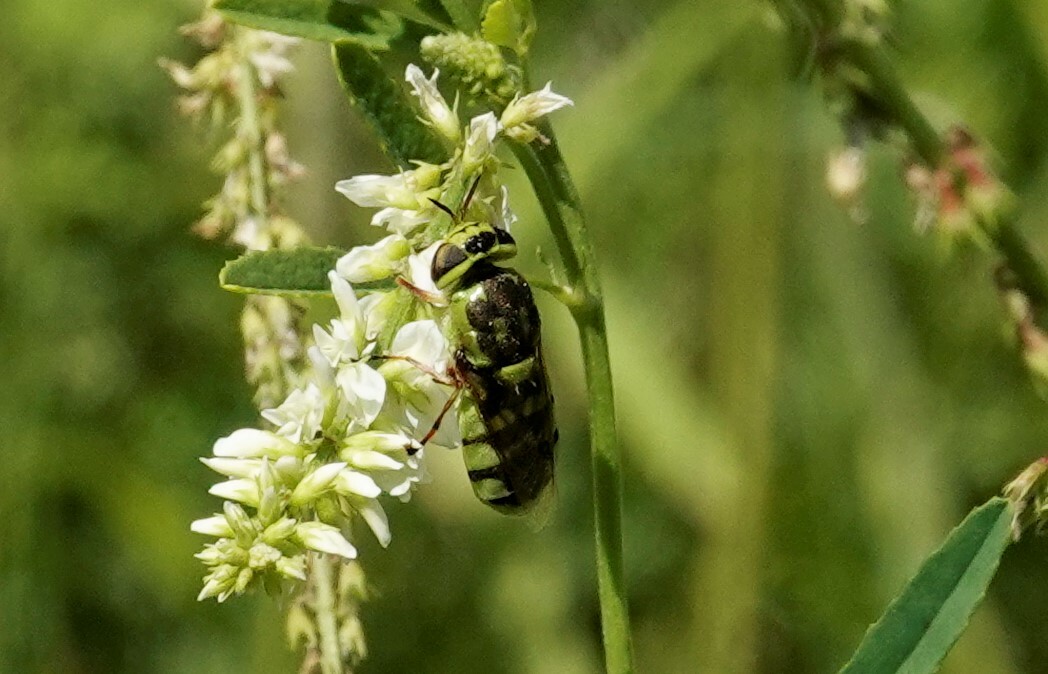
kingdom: Animalia
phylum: Arthropoda
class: Insecta
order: Diptera
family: Stratiomyidae
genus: Hedriodiscus
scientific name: Hedriodiscus binotatus
